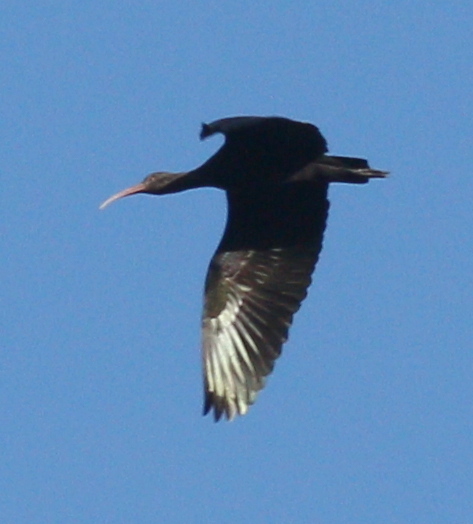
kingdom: Animalia
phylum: Chordata
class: Aves
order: Pelecaniformes
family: Threskiornithidae
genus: Plegadis
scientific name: Plegadis ridgwayi
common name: Puna ibis
